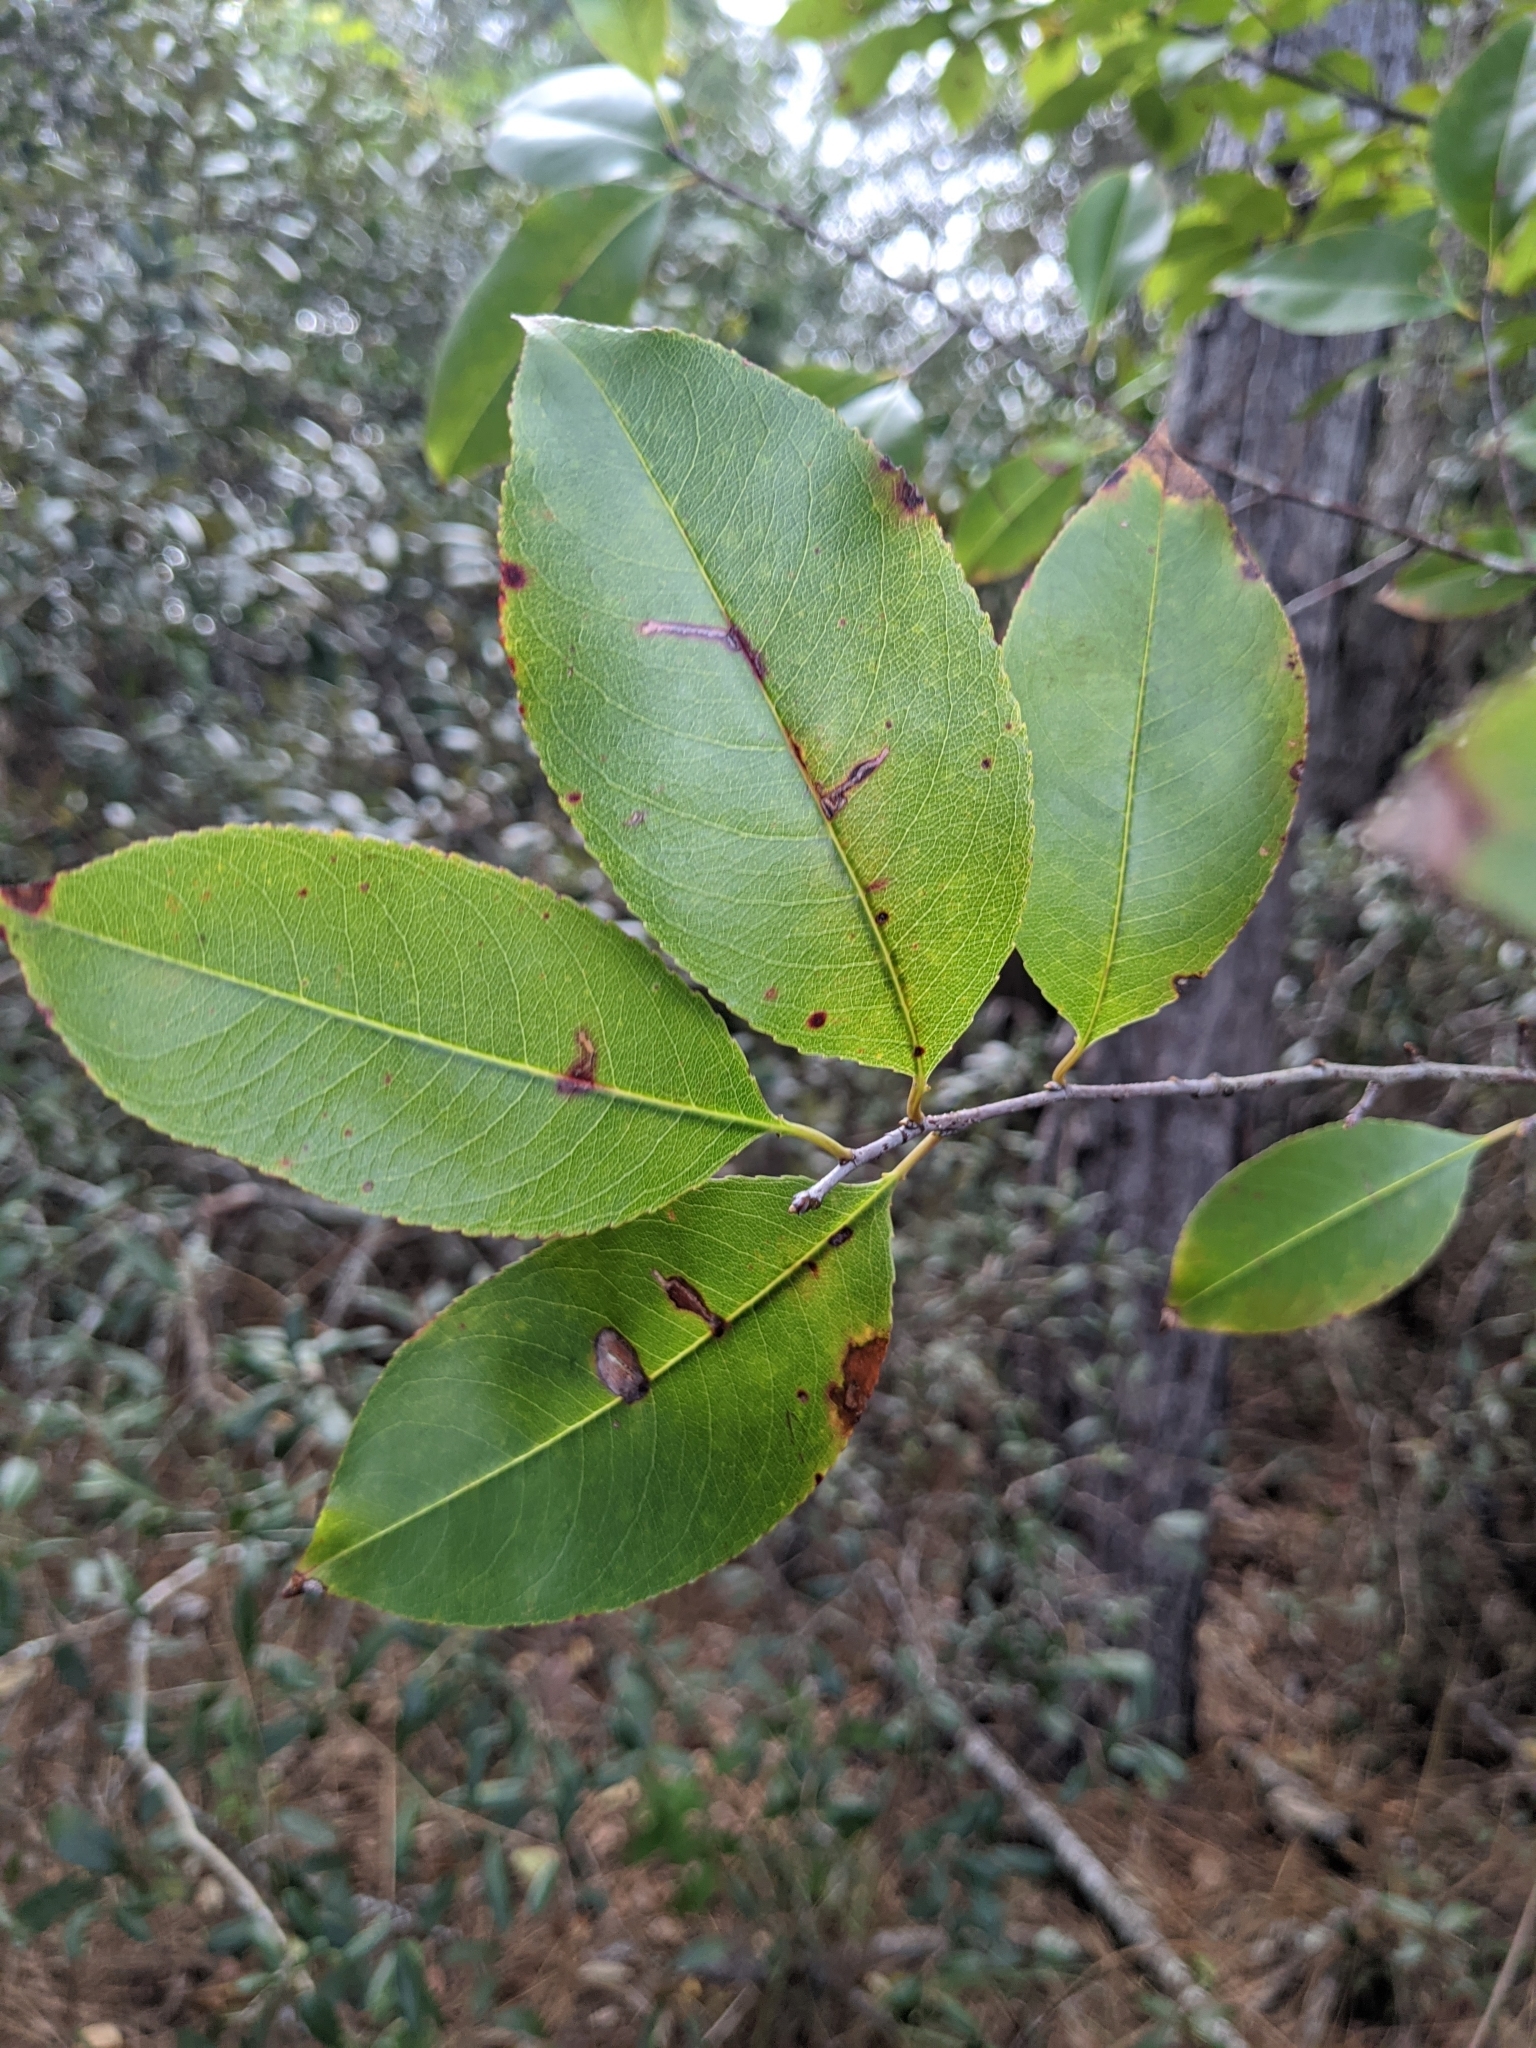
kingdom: Plantae
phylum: Tracheophyta
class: Magnoliopsida
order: Rosales
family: Rosaceae
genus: Prunus
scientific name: Prunus serotina
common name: Black cherry
